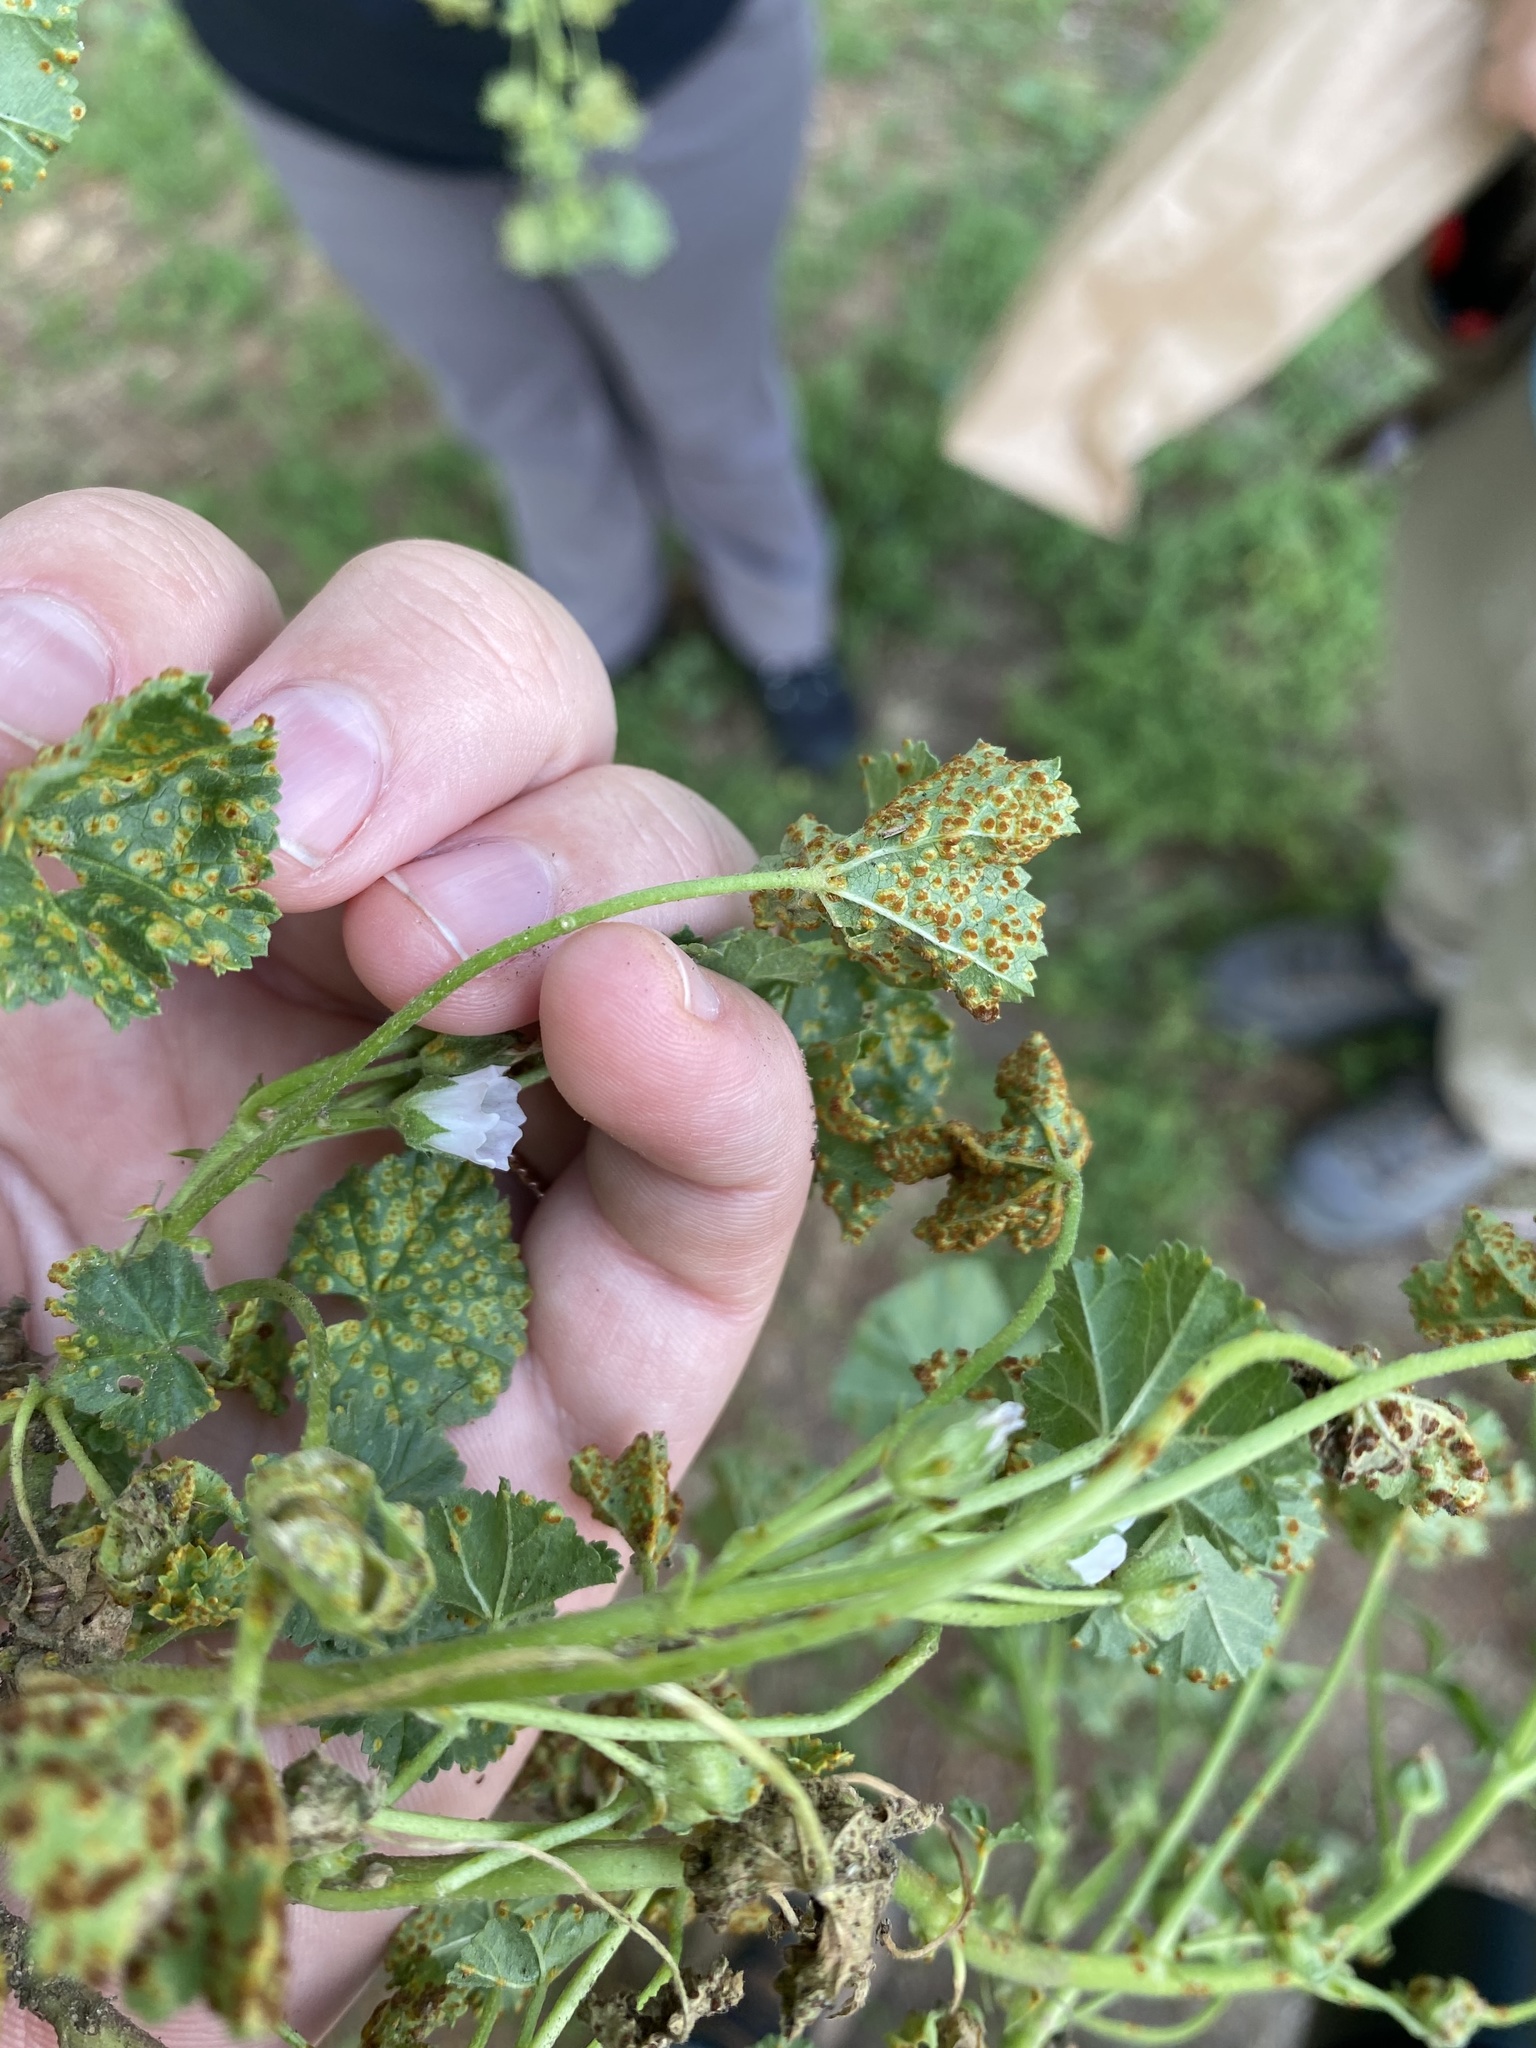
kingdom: Fungi
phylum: Basidiomycota
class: Pucciniomycetes
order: Pucciniales
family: Pucciniaceae
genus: Puccinia
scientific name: Puccinia malvacearum
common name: Hollyhock rust
